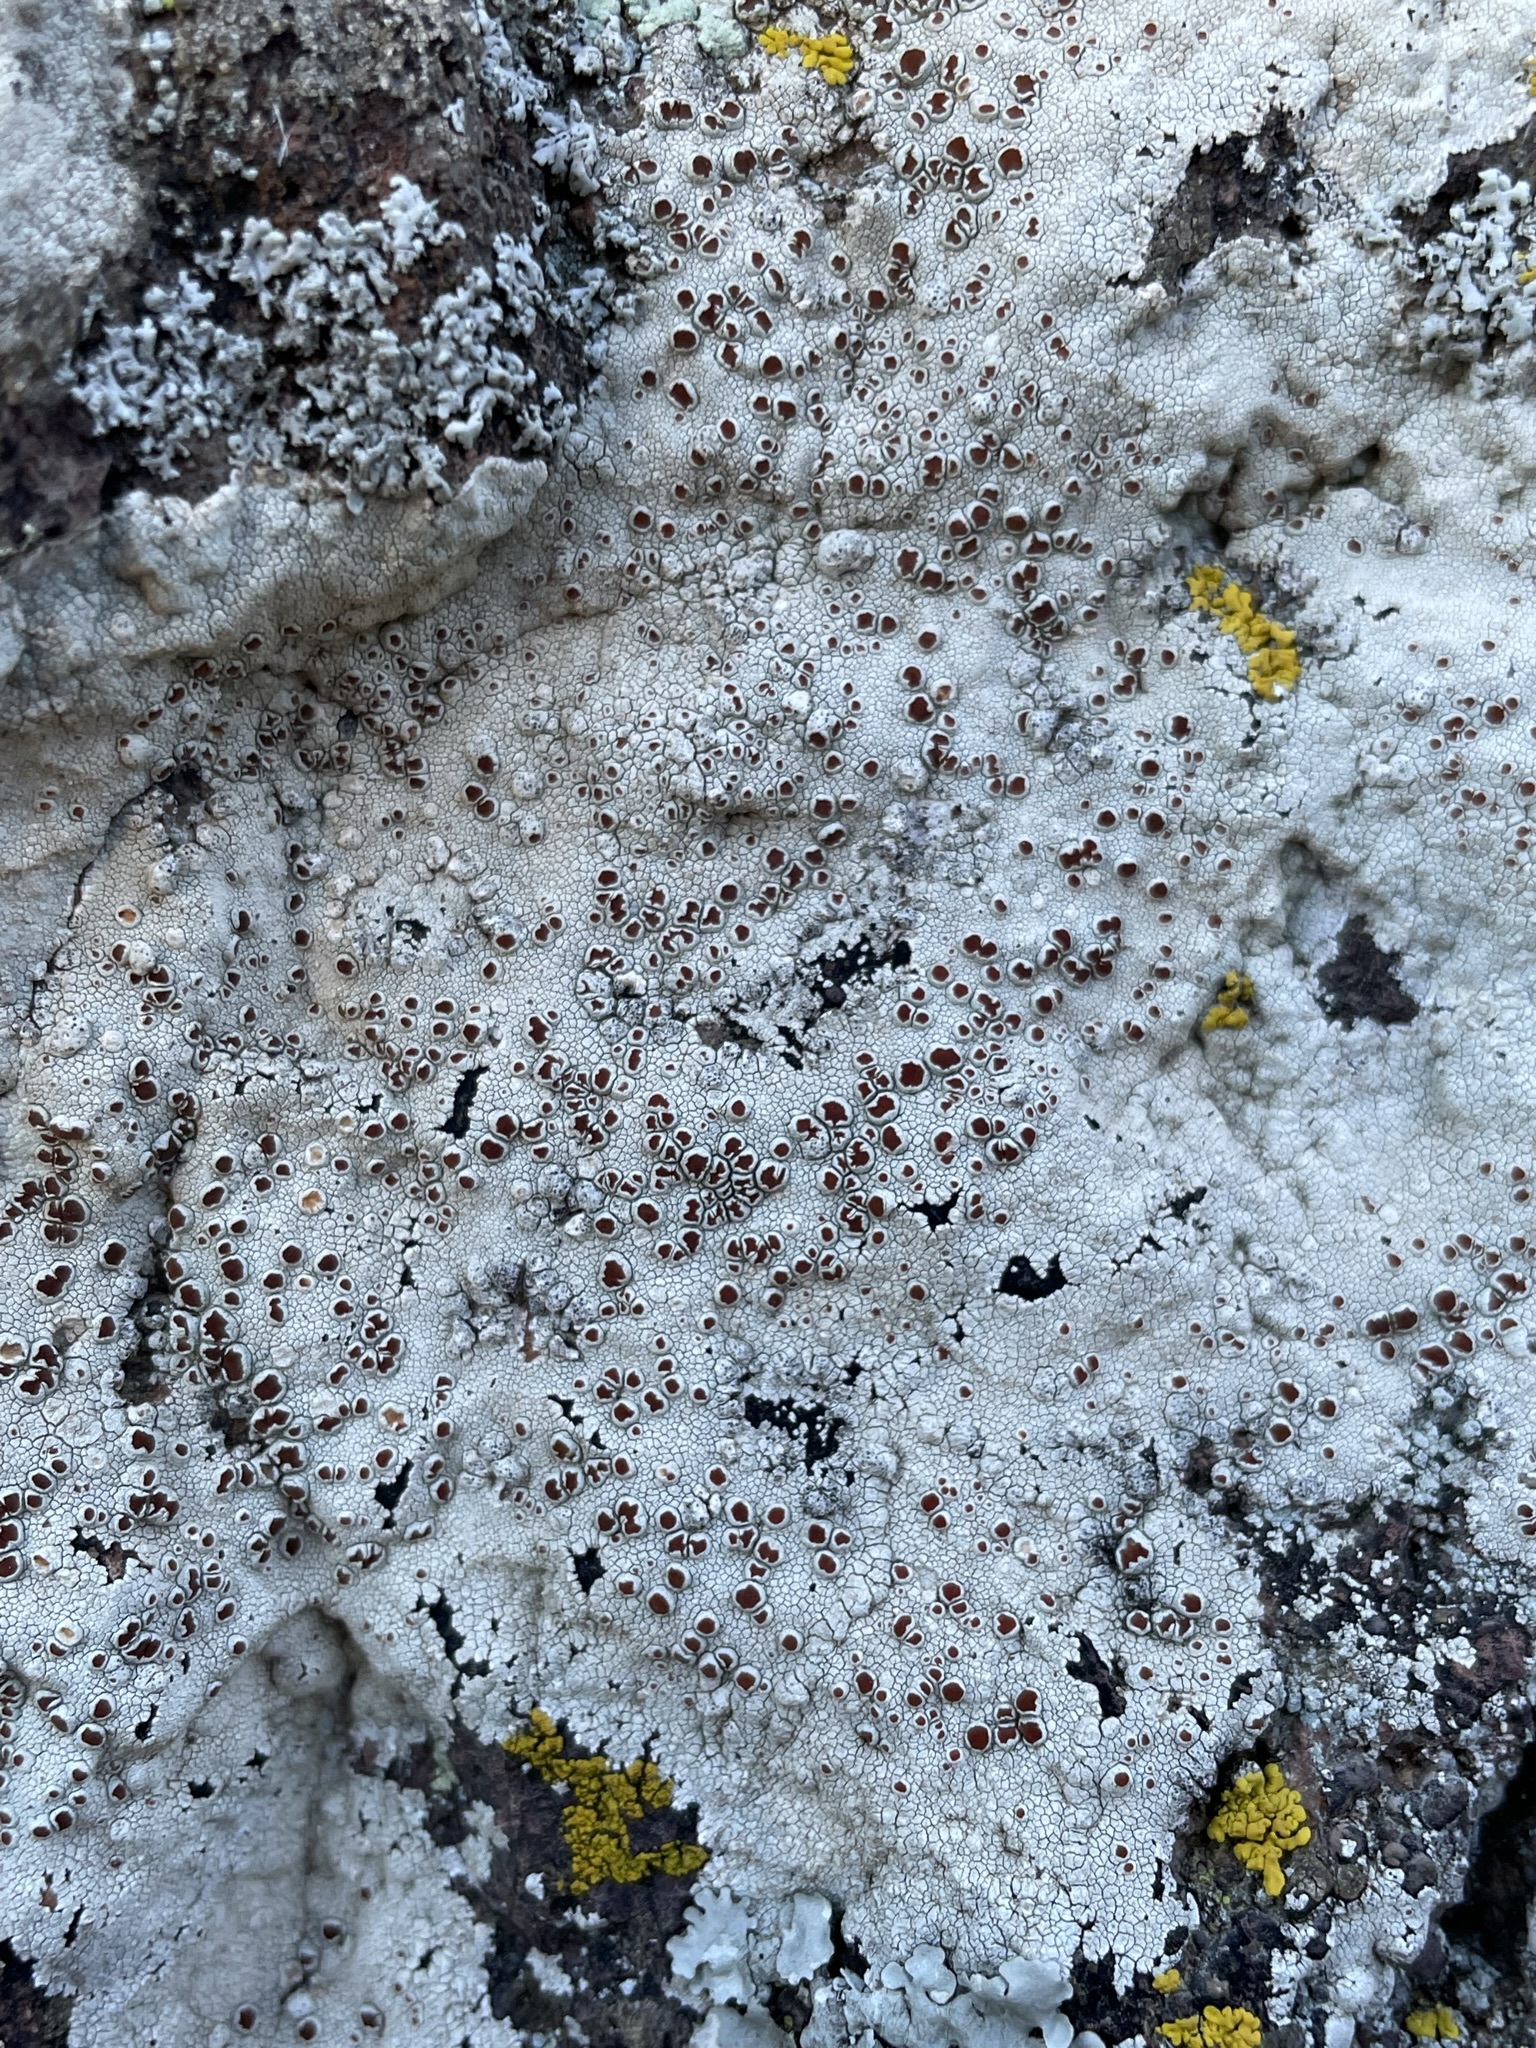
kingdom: Fungi
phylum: Ascomycota
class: Lecanoromycetes
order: Lecanorales
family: Haematommataceae
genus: Haematomma
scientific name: Haematomma fenzlianum
